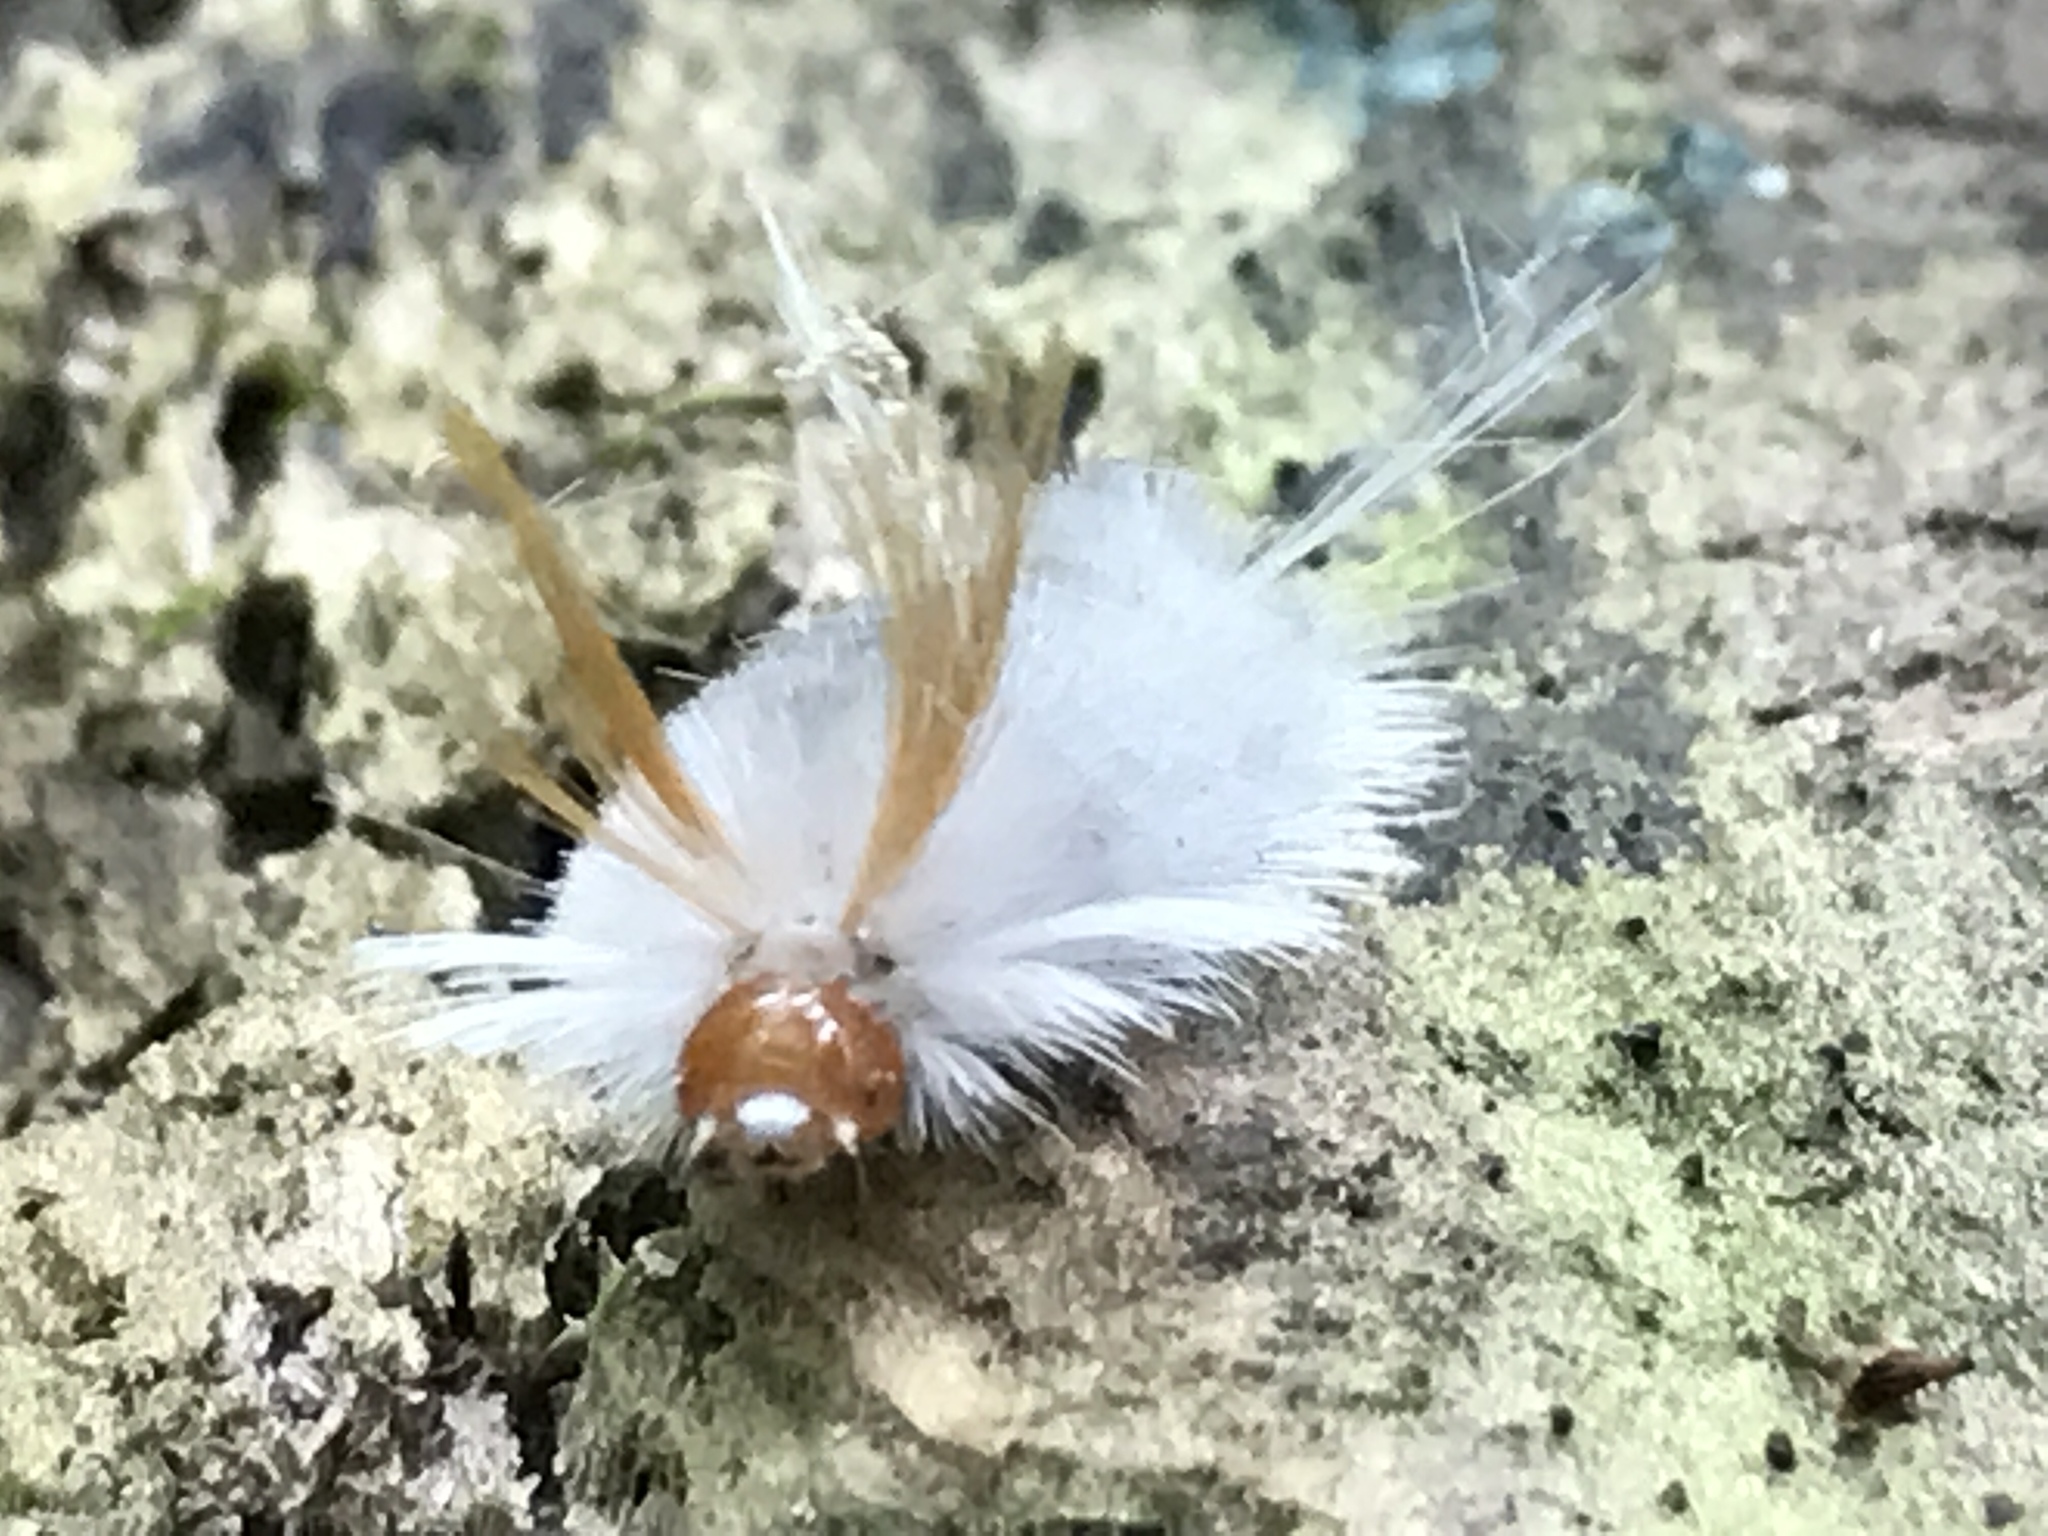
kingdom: Animalia
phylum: Arthropoda
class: Insecta
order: Lepidoptera
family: Erebidae
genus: Halysidota
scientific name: Halysidota harrisii
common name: Sycamore tussock moth
